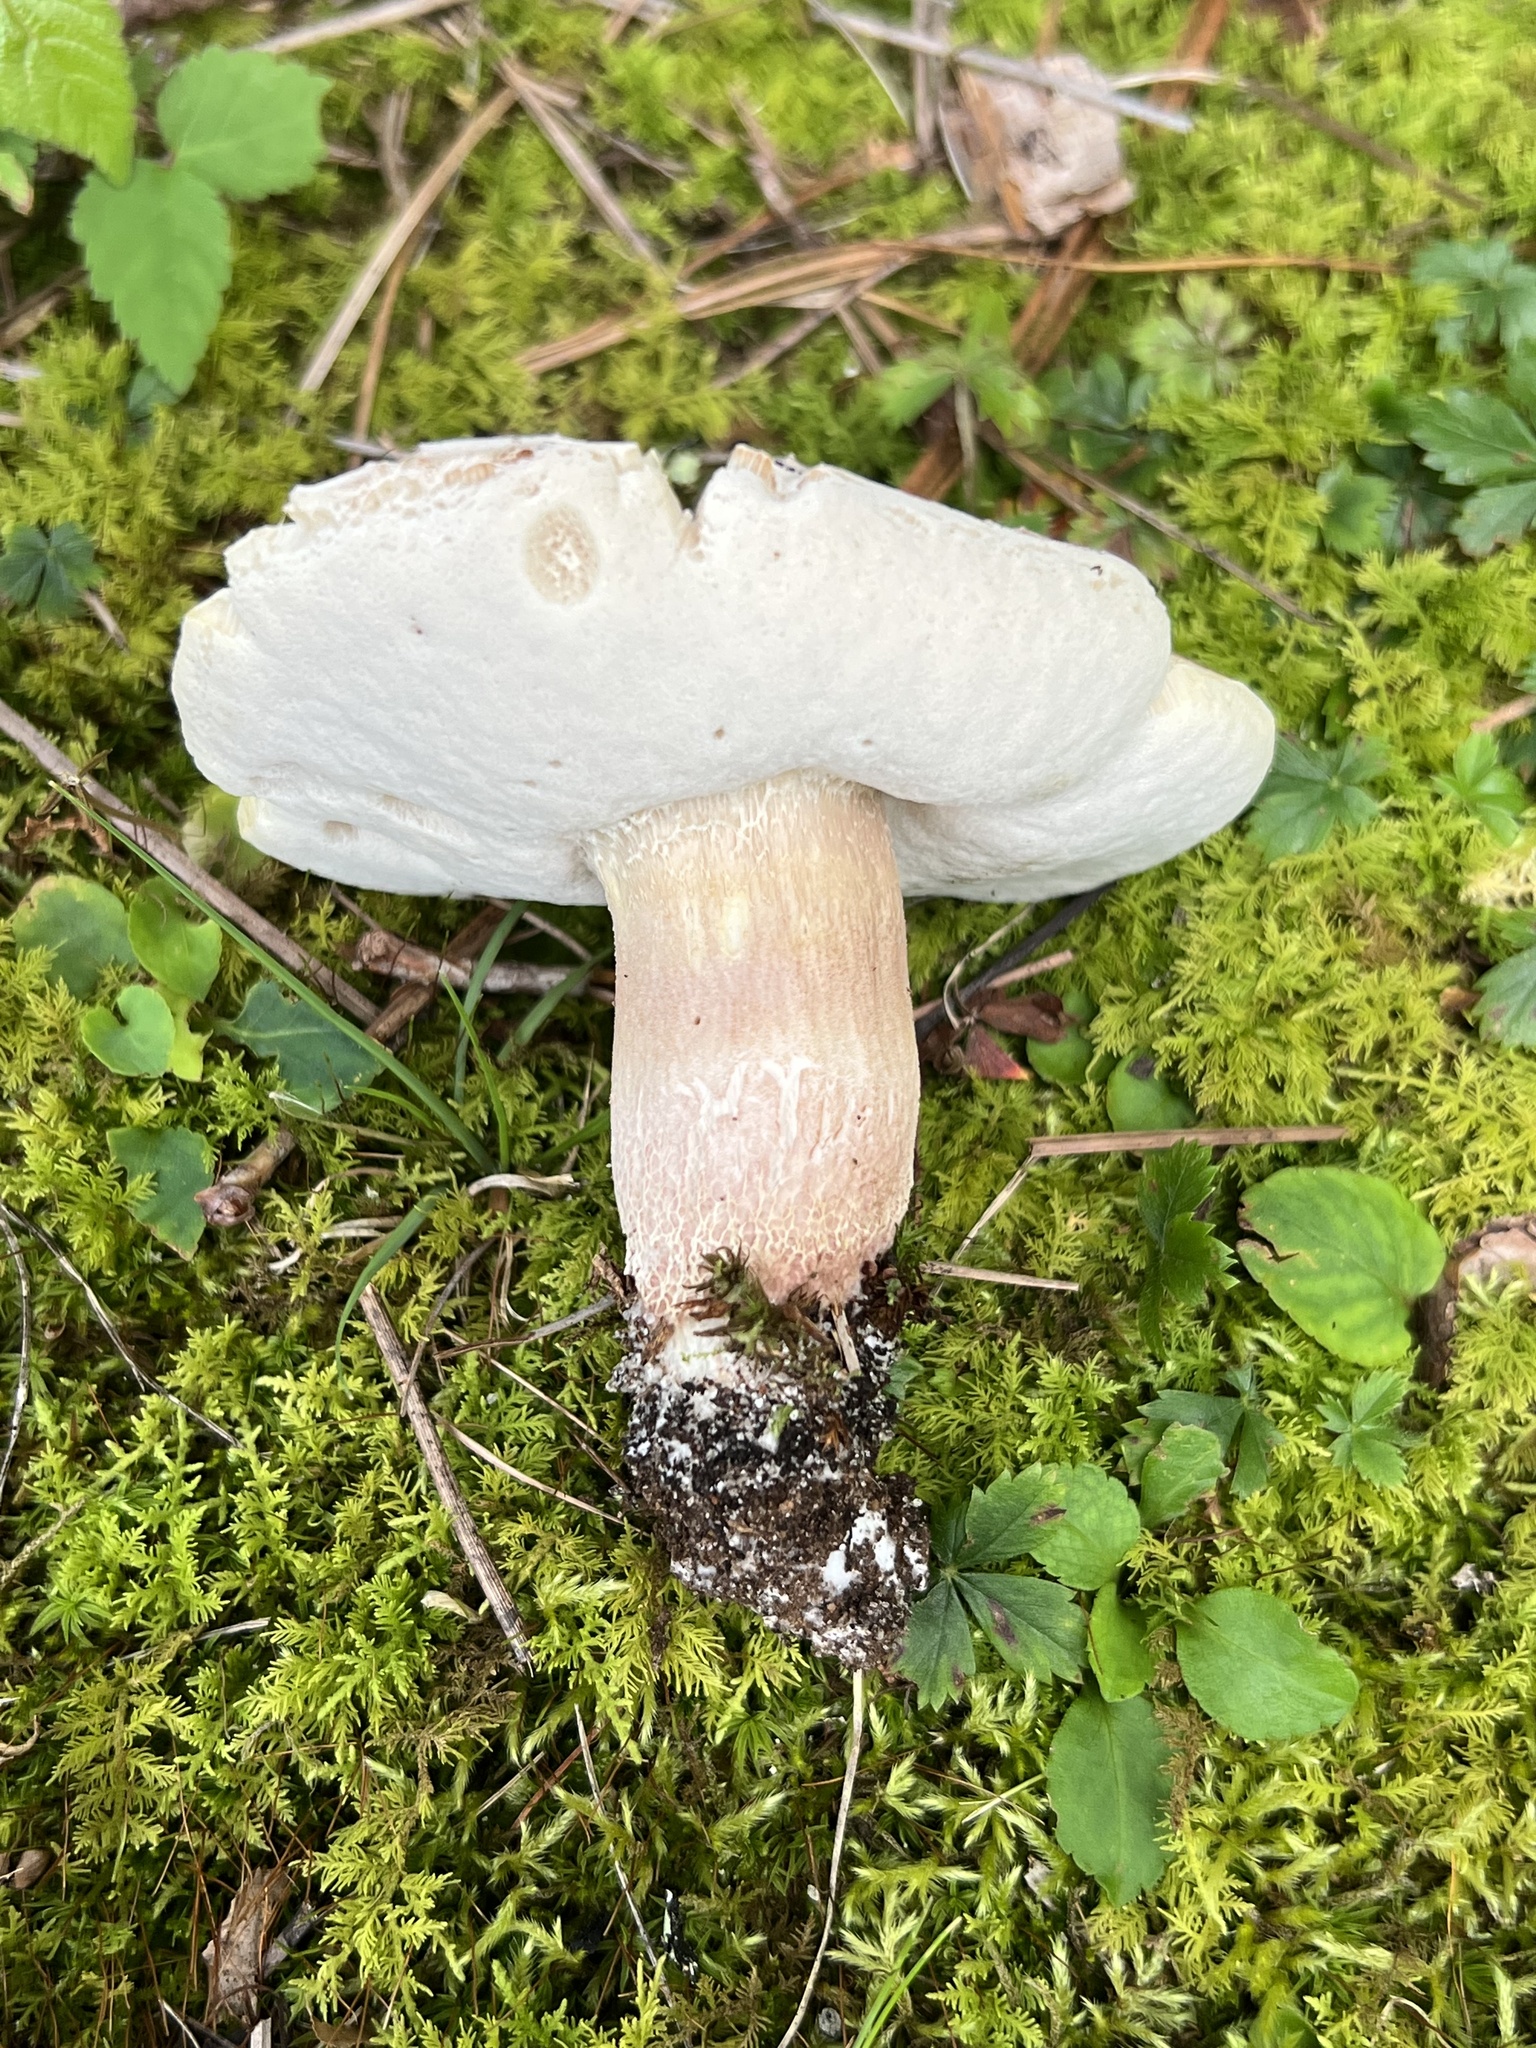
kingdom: Fungi
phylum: Basidiomycota
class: Agaricomycetes
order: Boletales
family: Boletaceae
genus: Xanthoconium
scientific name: Xanthoconium separans
